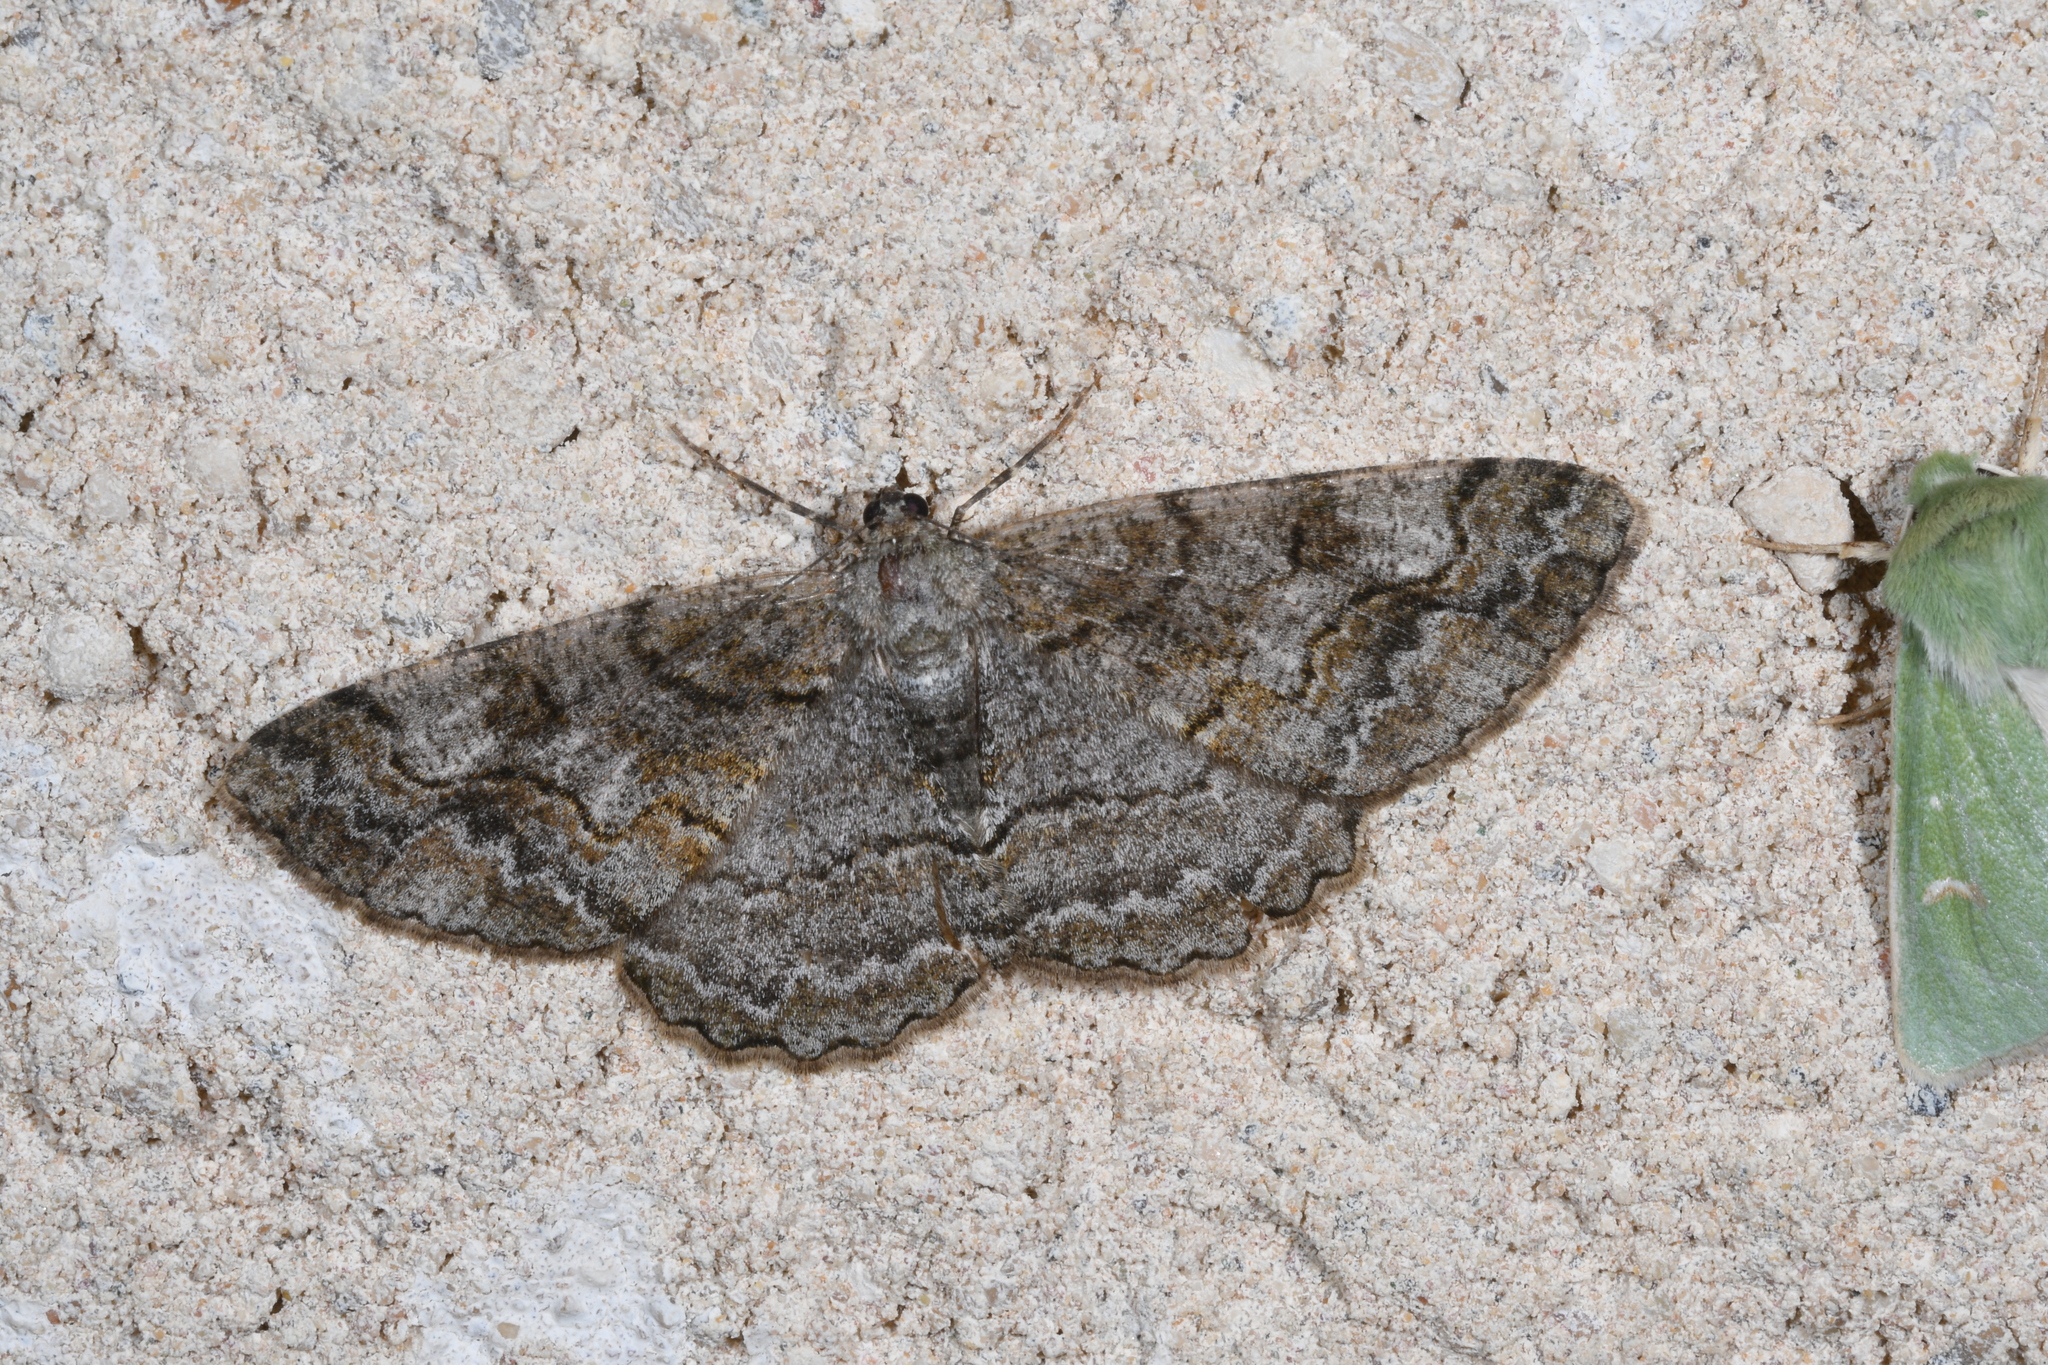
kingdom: Animalia
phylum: Arthropoda
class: Insecta
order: Lepidoptera
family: Geometridae
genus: Alcis
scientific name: Alcis repandata
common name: Mottled beauty
